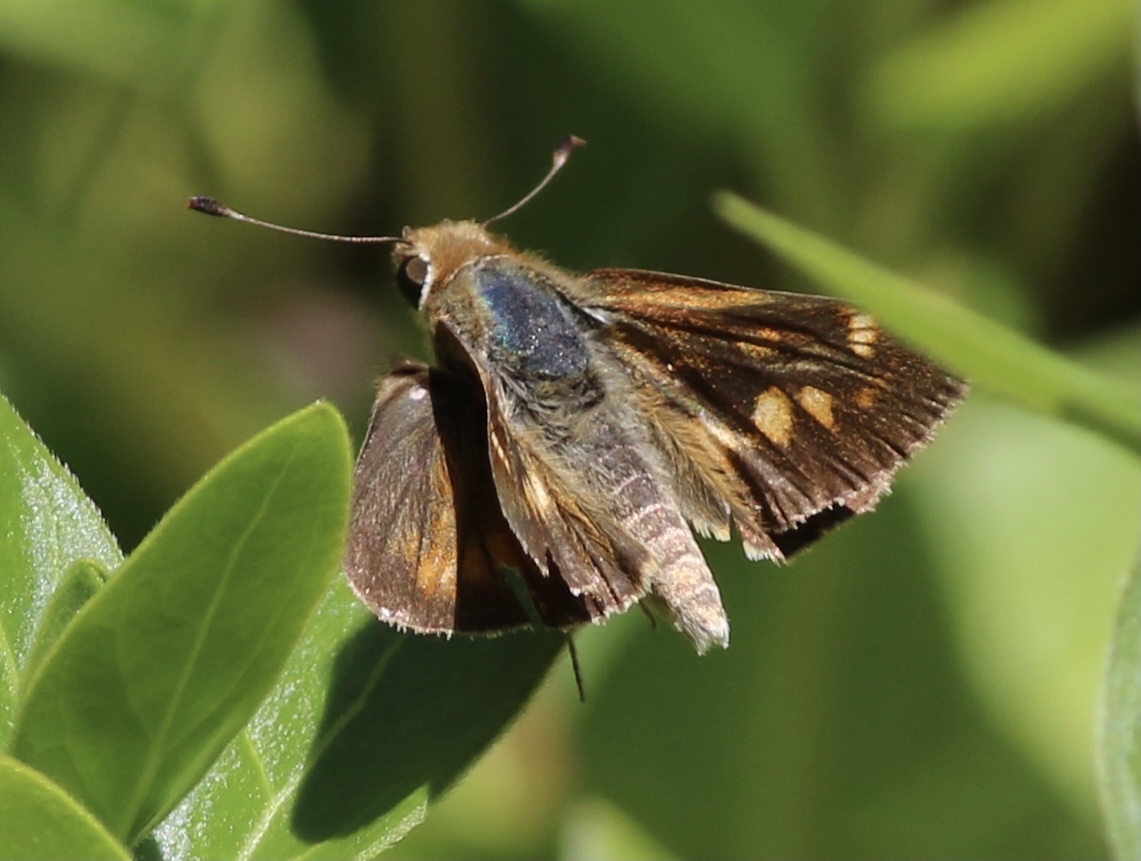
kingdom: Animalia
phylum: Arthropoda
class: Insecta
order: Lepidoptera
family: Hesperiidae
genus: Lon
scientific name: Lon melane
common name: Umber skipper
